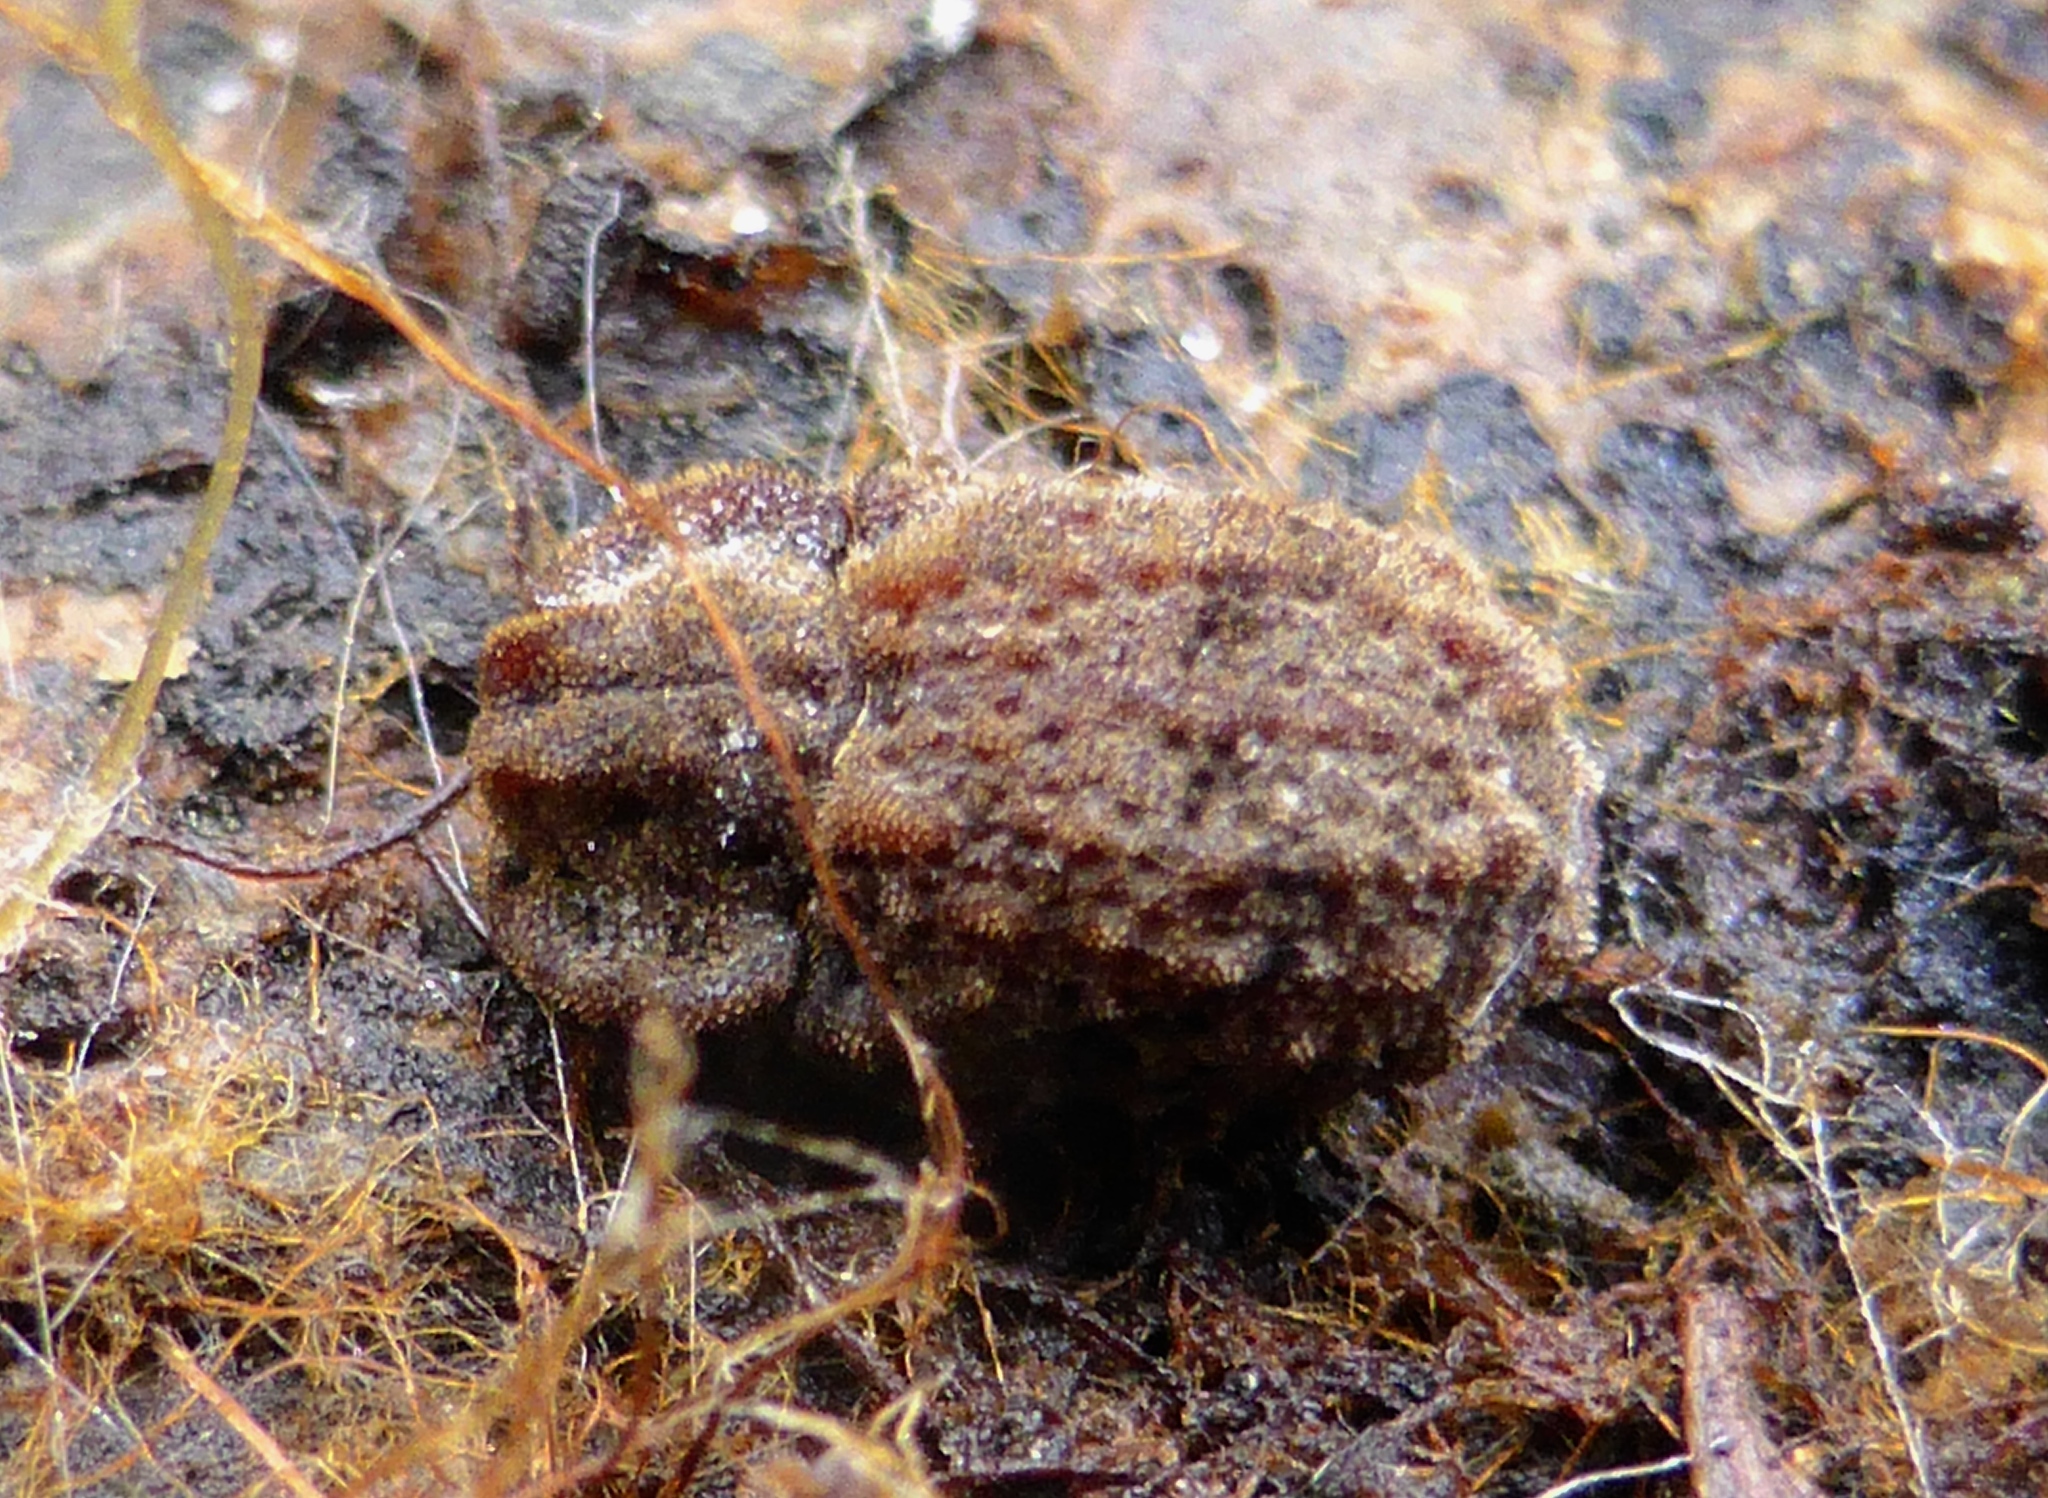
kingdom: Animalia
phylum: Arthropoda
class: Insecta
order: Coleoptera
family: Zopheridae
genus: Pristoderus
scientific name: Pristoderus
